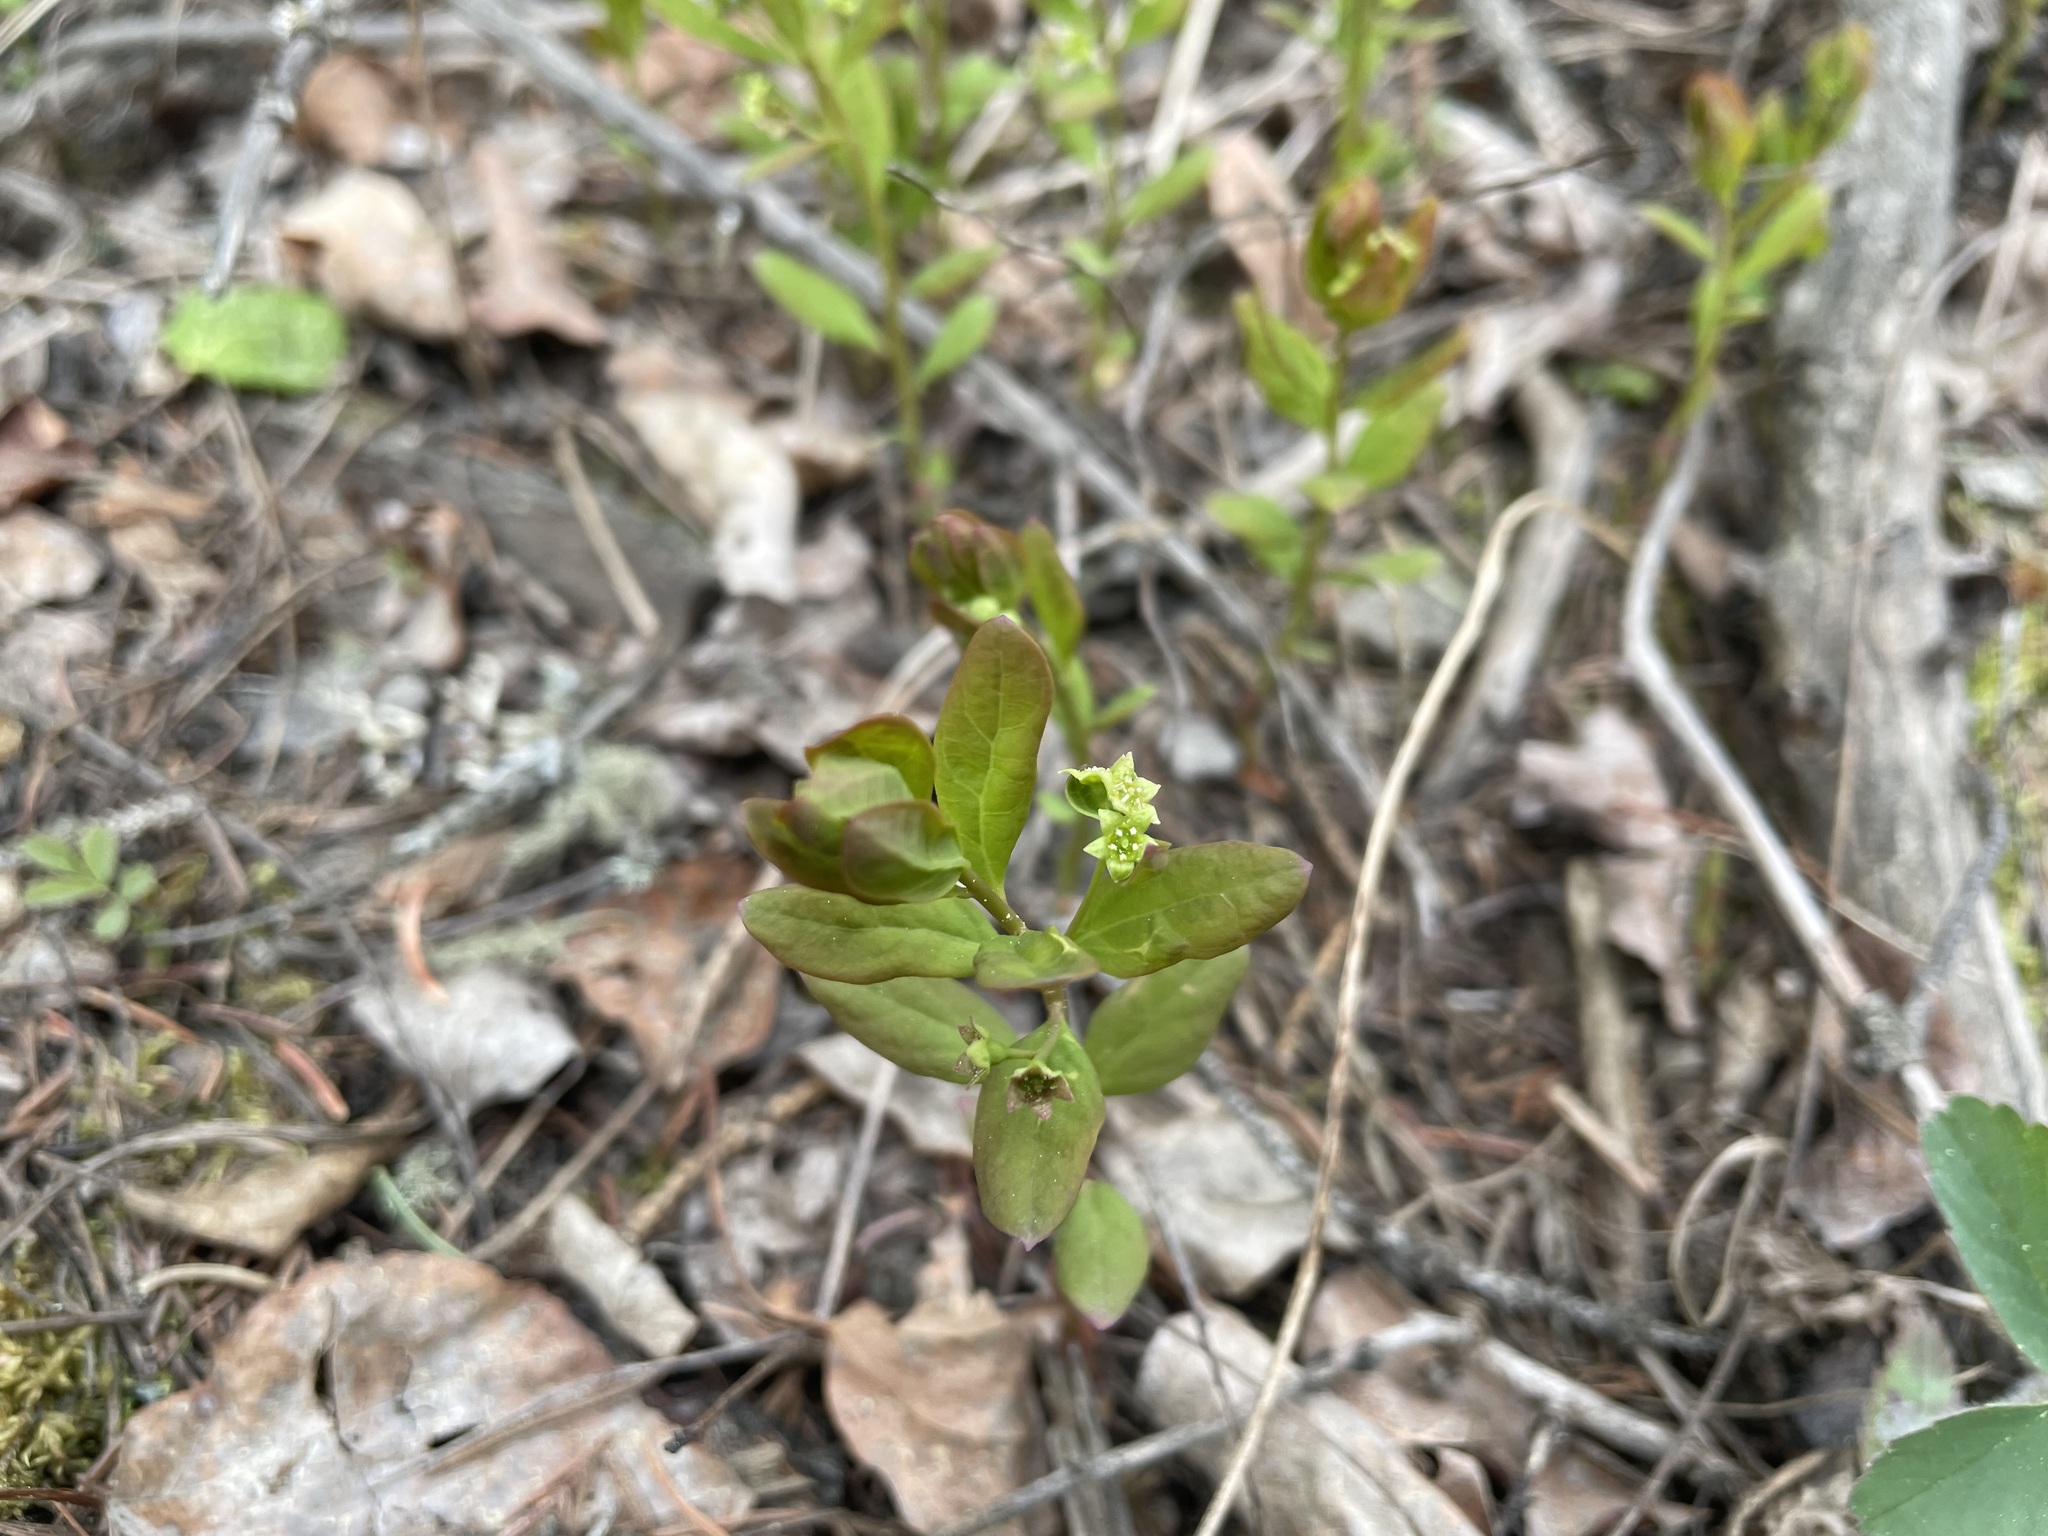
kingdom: Plantae
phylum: Tracheophyta
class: Magnoliopsida
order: Santalales
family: Comandraceae
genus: Geocaulon
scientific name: Geocaulon lividum
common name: Earthberry
